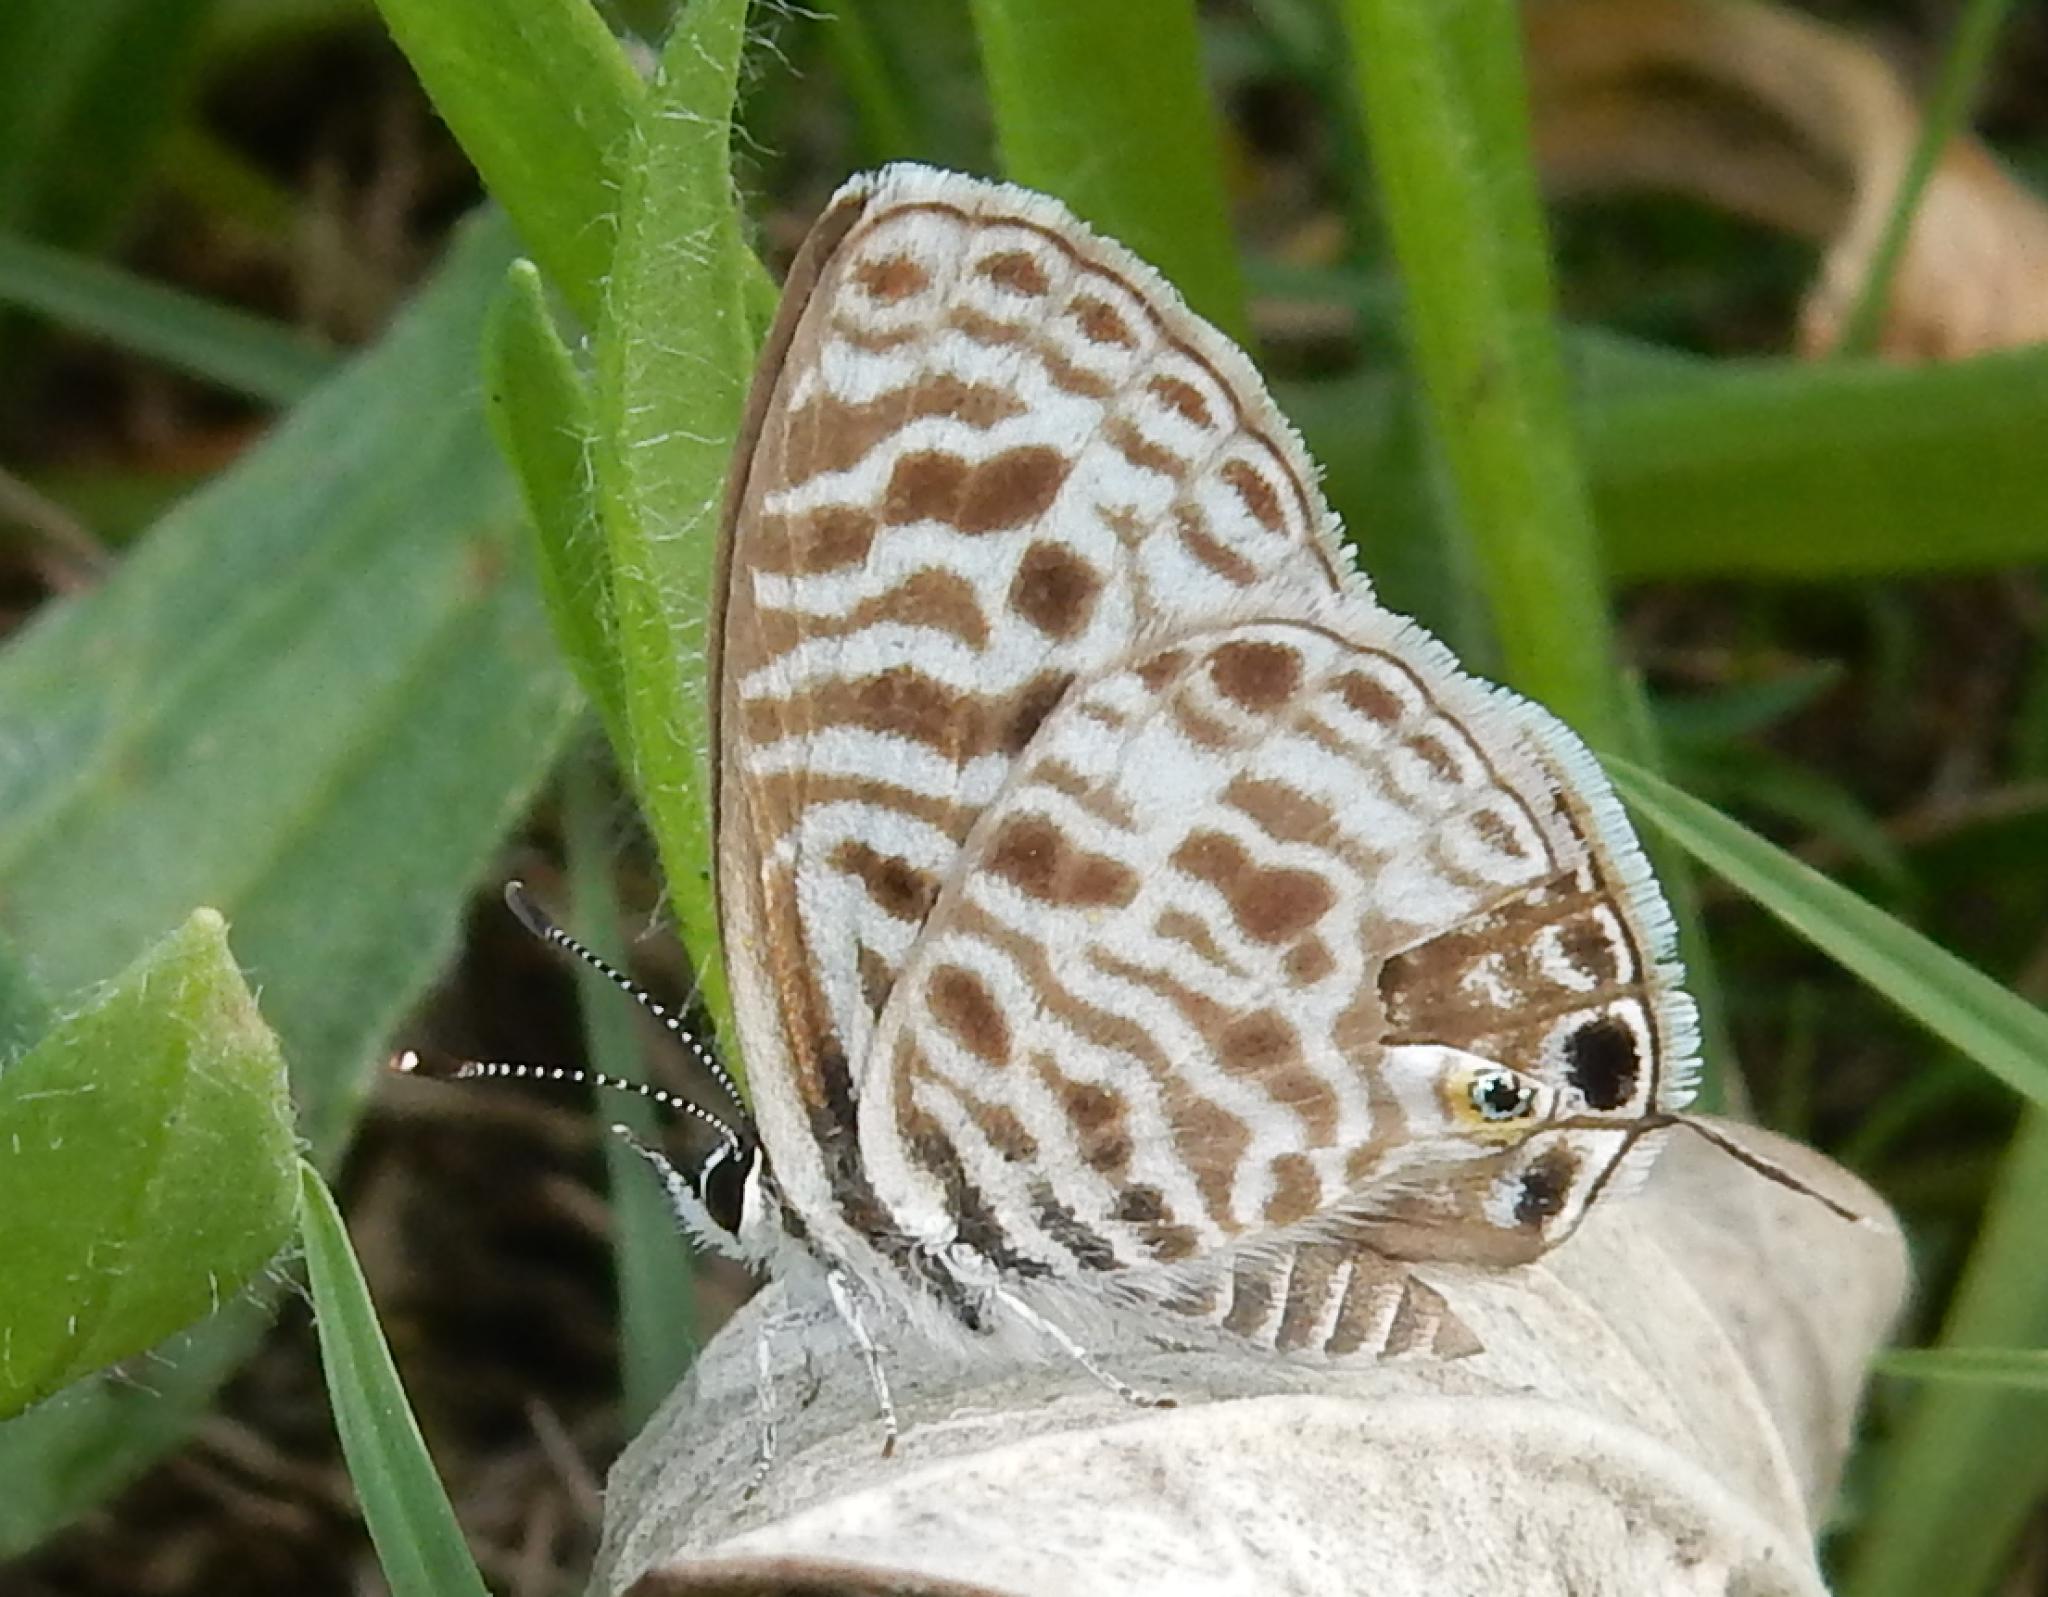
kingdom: Animalia
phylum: Arthropoda
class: Insecta
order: Lepidoptera
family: Lycaenidae
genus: Leptotes
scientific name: Leptotes
